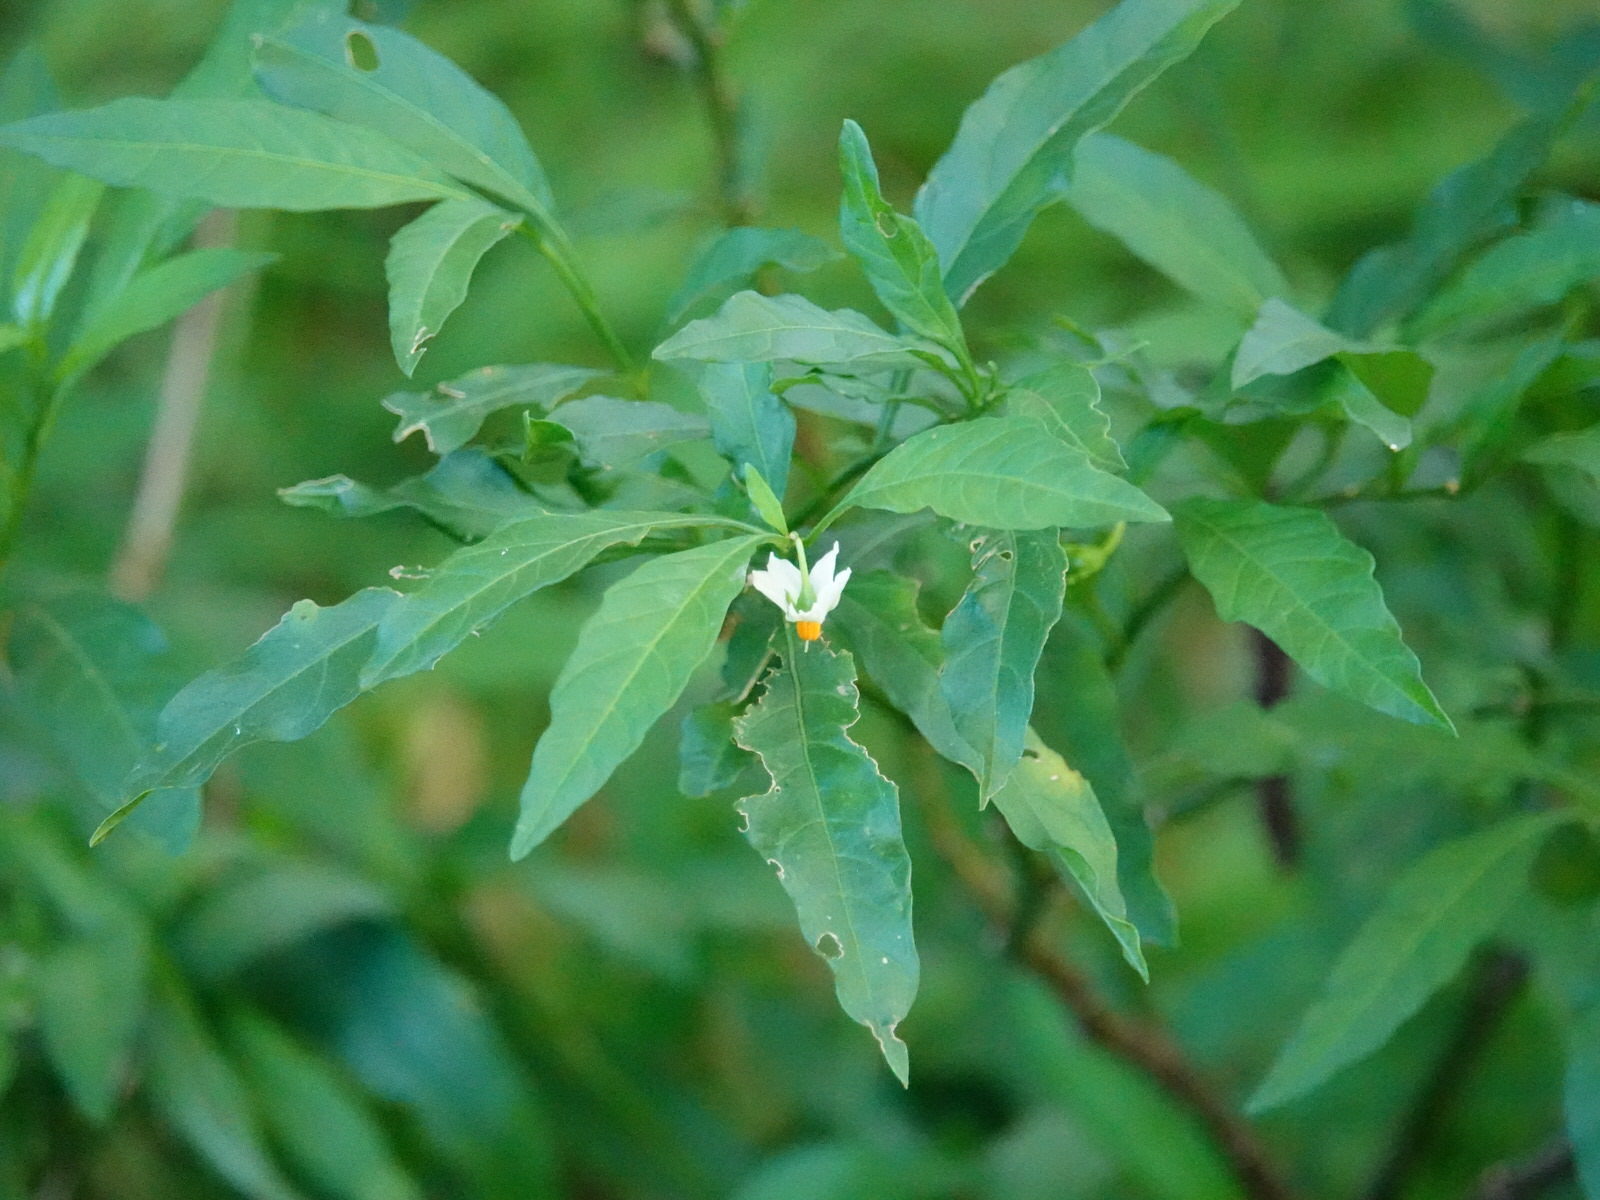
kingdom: Plantae
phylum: Tracheophyta
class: Magnoliopsida
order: Solanales
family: Solanaceae
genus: Solanum
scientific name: Solanum pseudocapsicum
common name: Jerusalem cherry
